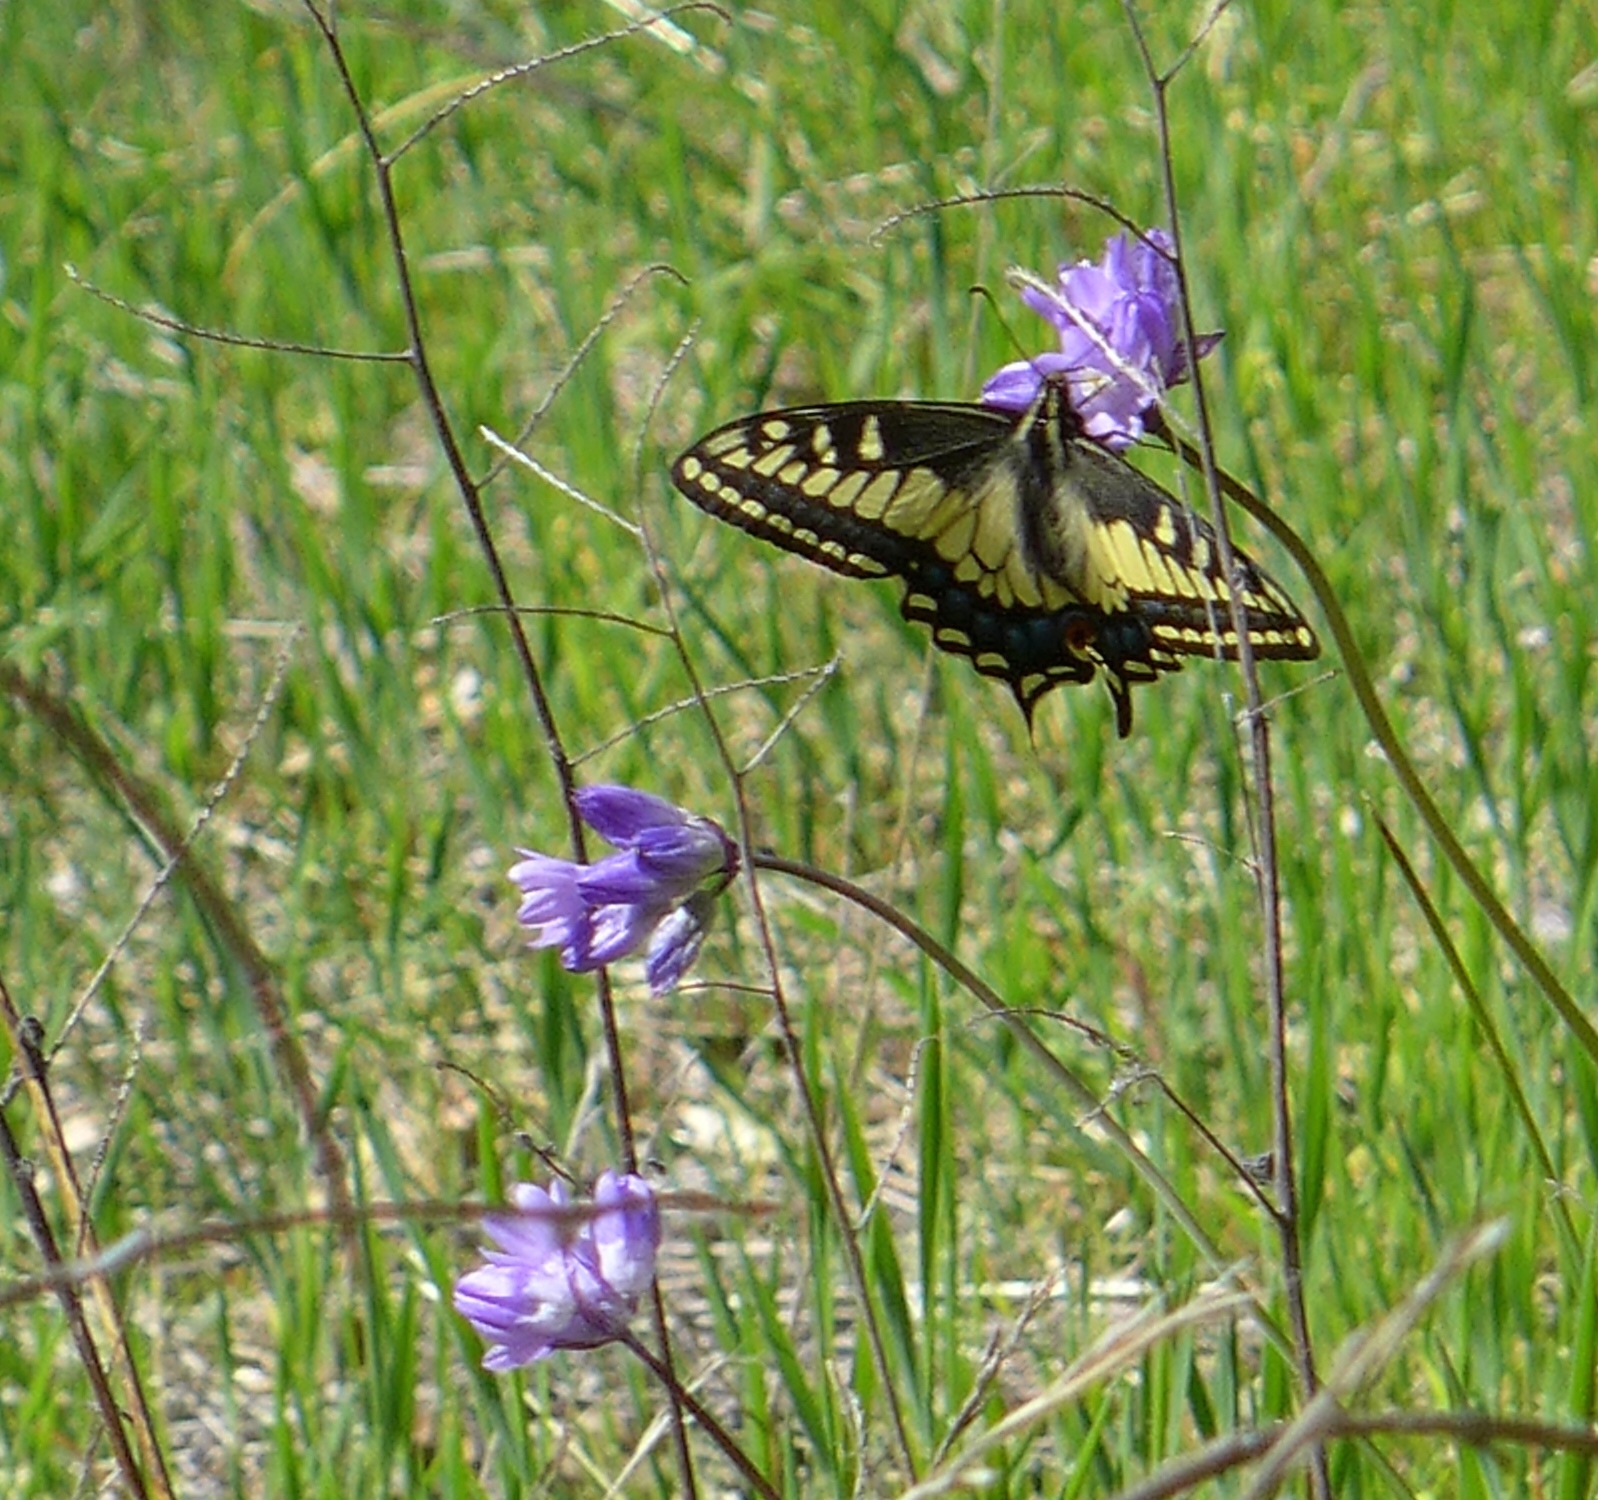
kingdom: Animalia
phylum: Arthropoda
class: Insecta
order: Lepidoptera
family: Papilionidae
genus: Papilio
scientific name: Papilio zelicaon
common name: Anise swallowtail
